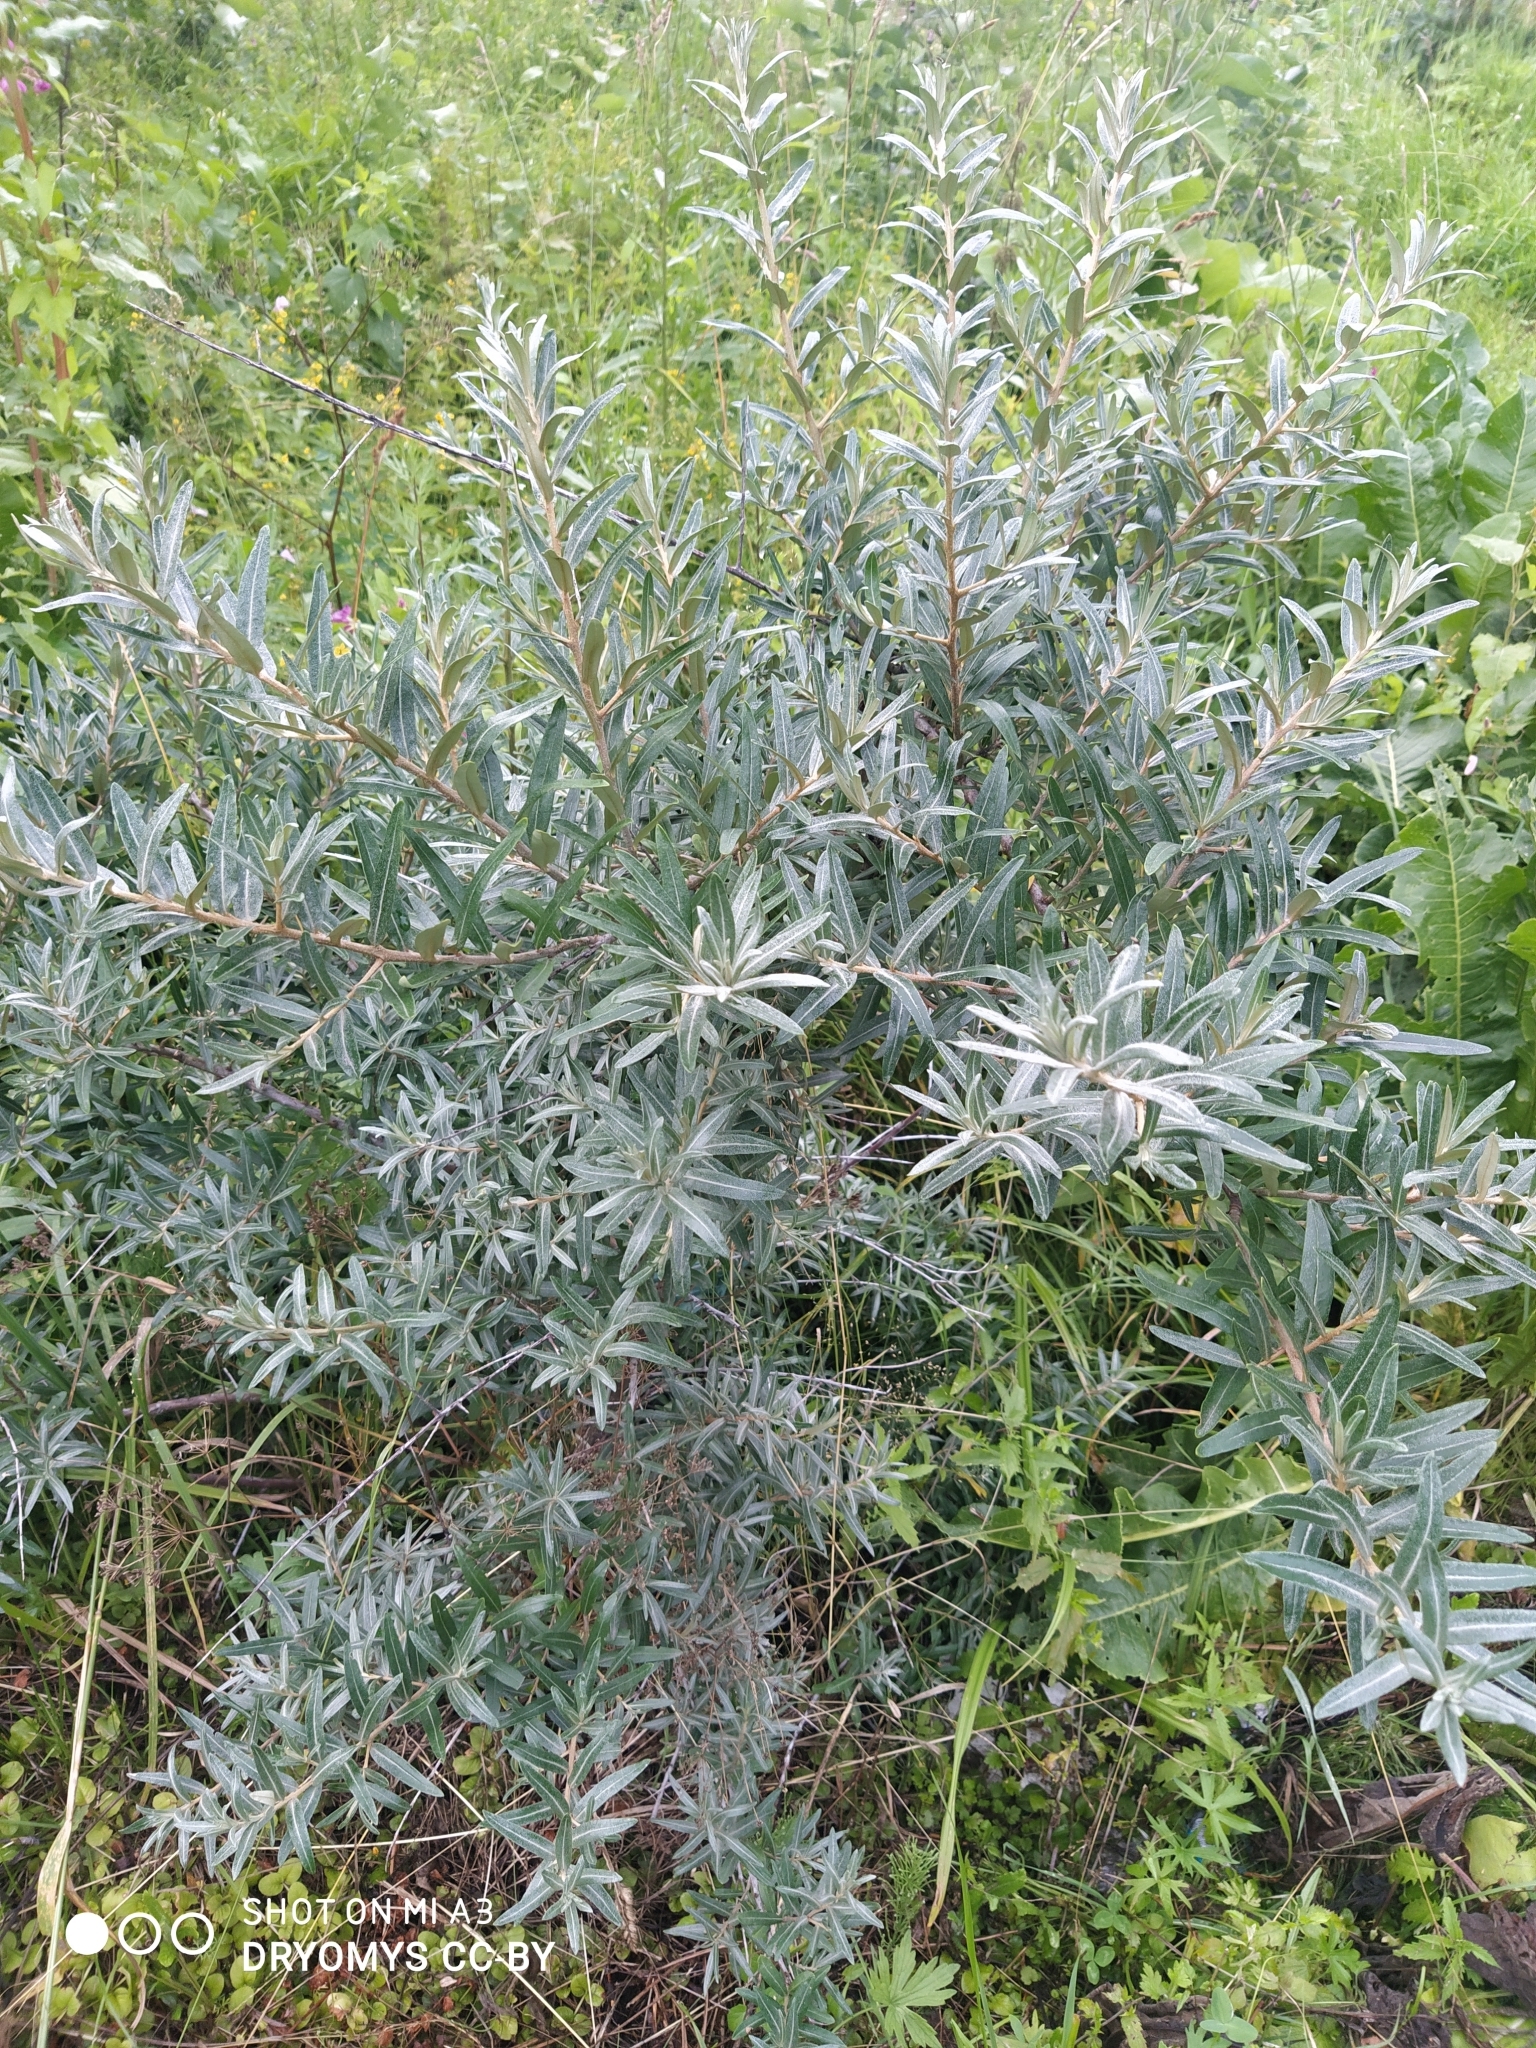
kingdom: Plantae
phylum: Tracheophyta
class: Magnoliopsida
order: Rosales
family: Elaeagnaceae
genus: Hippophae
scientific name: Hippophae rhamnoides
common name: Sea-buckthorn
